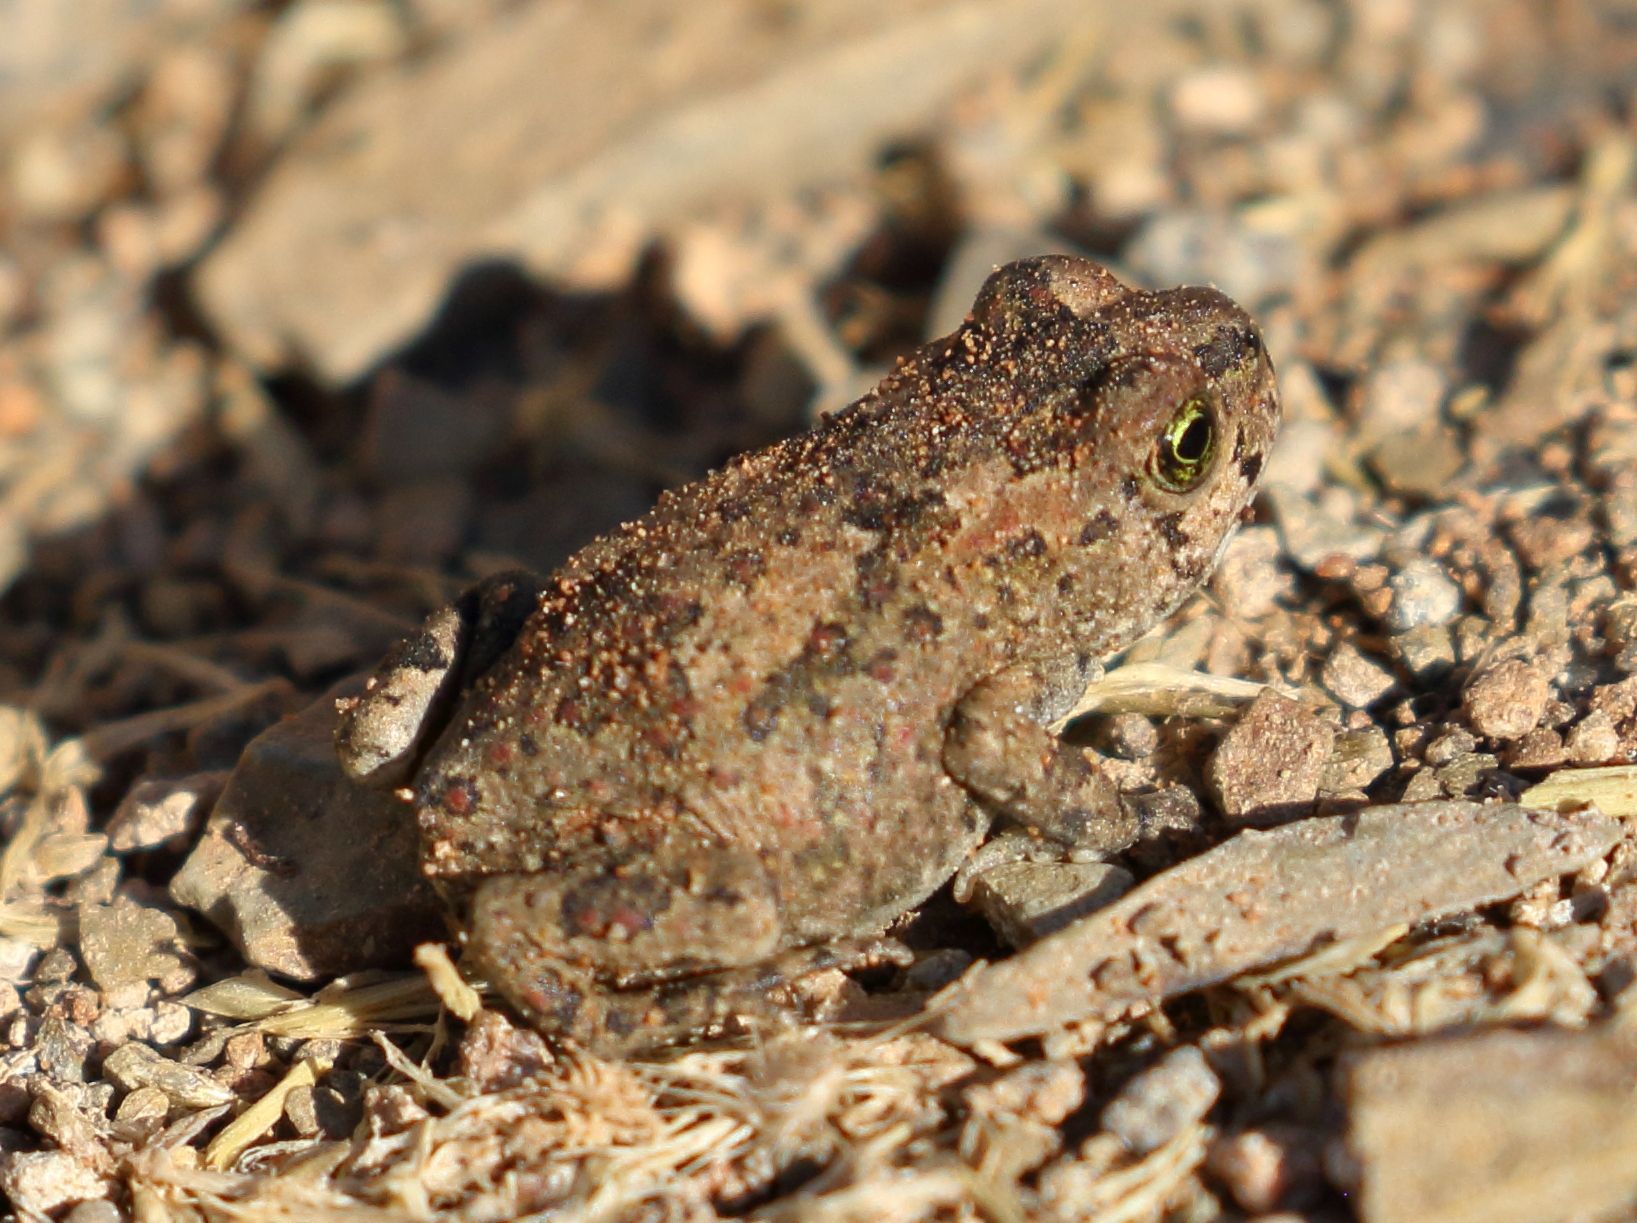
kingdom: Animalia
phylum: Chordata
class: Amphibia
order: Anura
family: Bufonidae
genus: Vandijkophrynus
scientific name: Vandijkophrynus gariepensis
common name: Gariep toad
